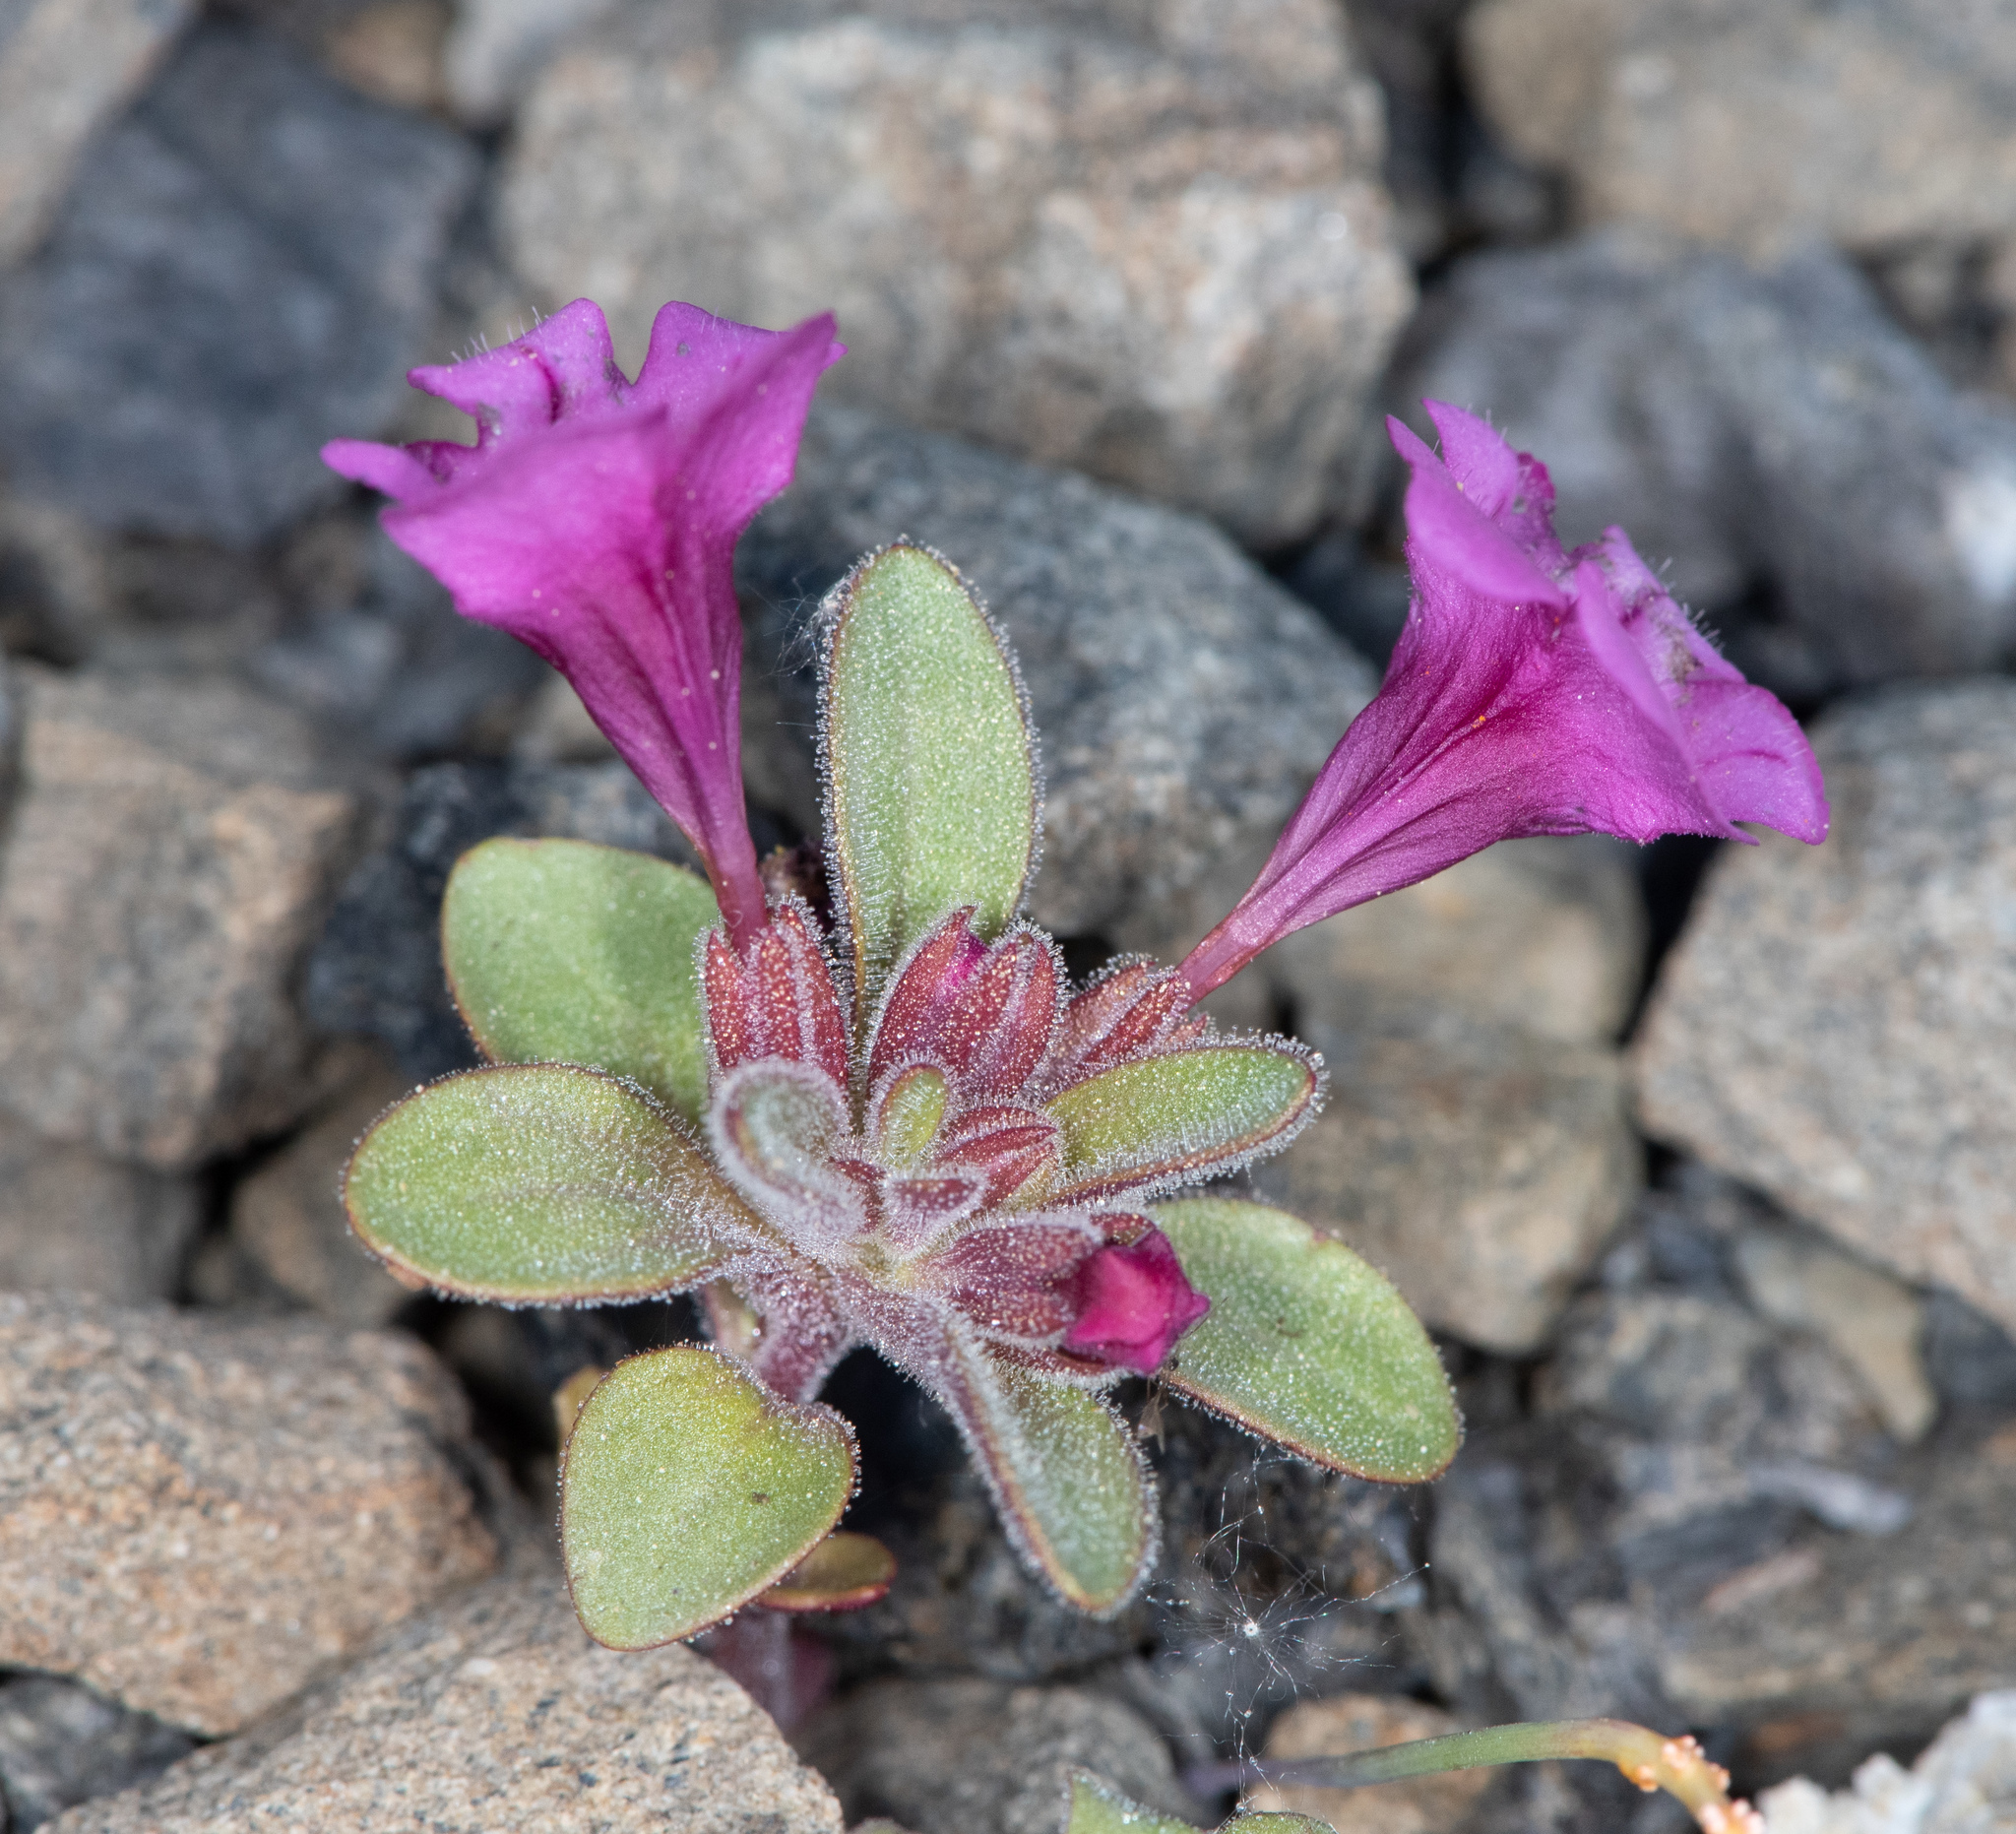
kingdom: Plantae
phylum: Tracheophyta
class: Magnoliopsida
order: Lamiales
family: Phrymaceae
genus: Diplacus
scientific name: Diplacus nanus
